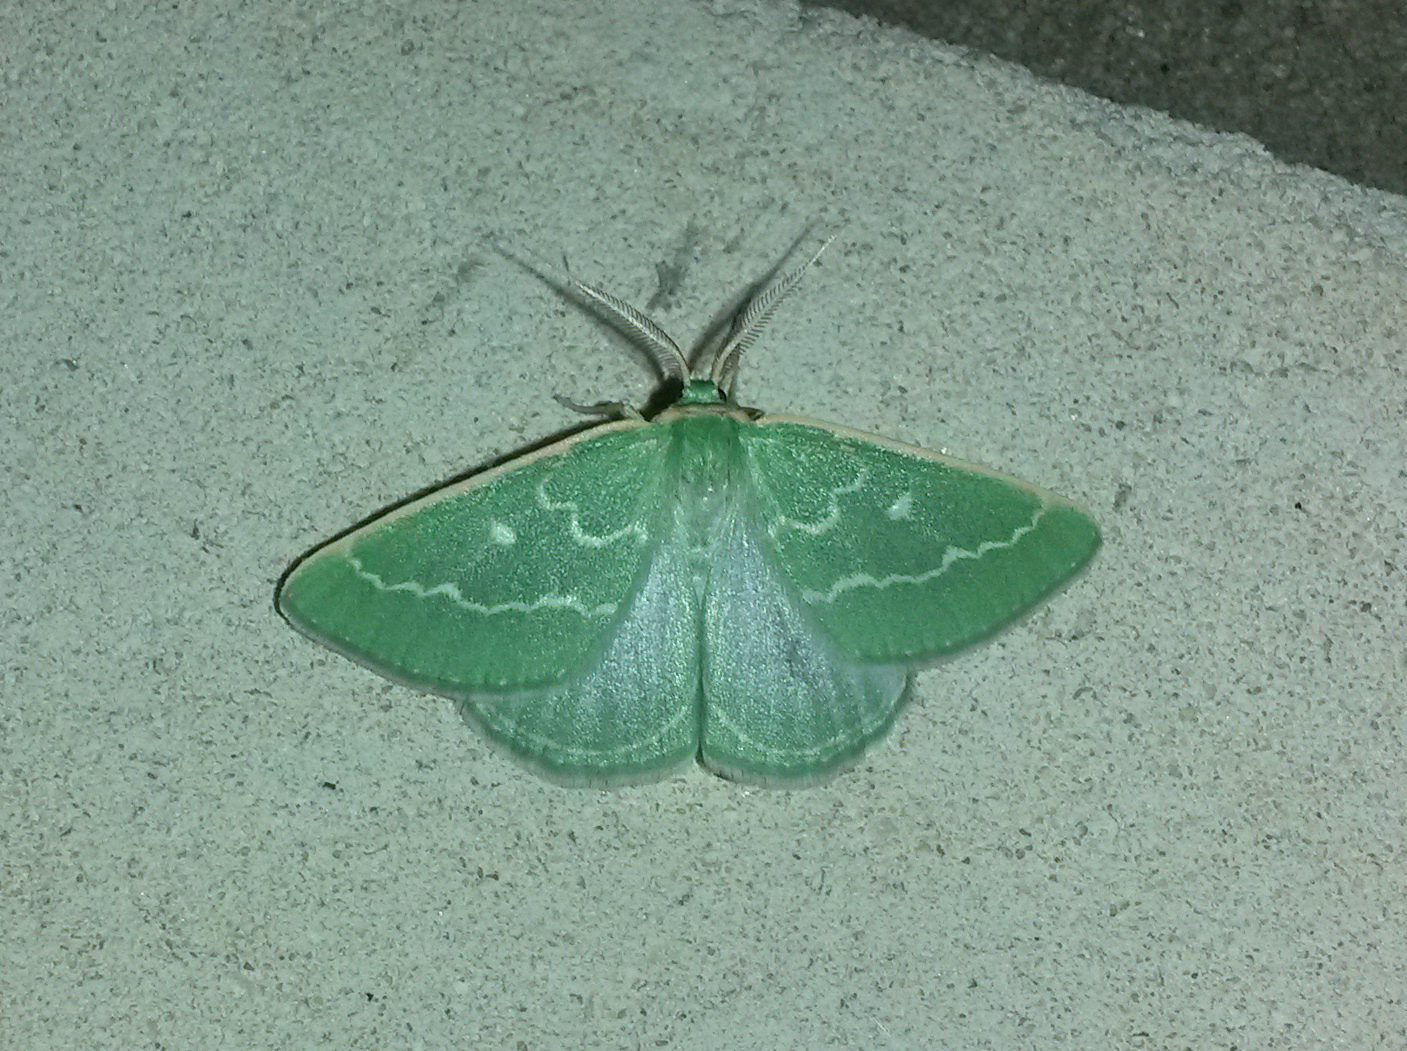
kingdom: Animalia
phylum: Arthropoda
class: Insecta
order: Lepidoptera
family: Geometridae
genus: Thetidia
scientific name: Thetidia smaragdaria
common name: Essex emerald
